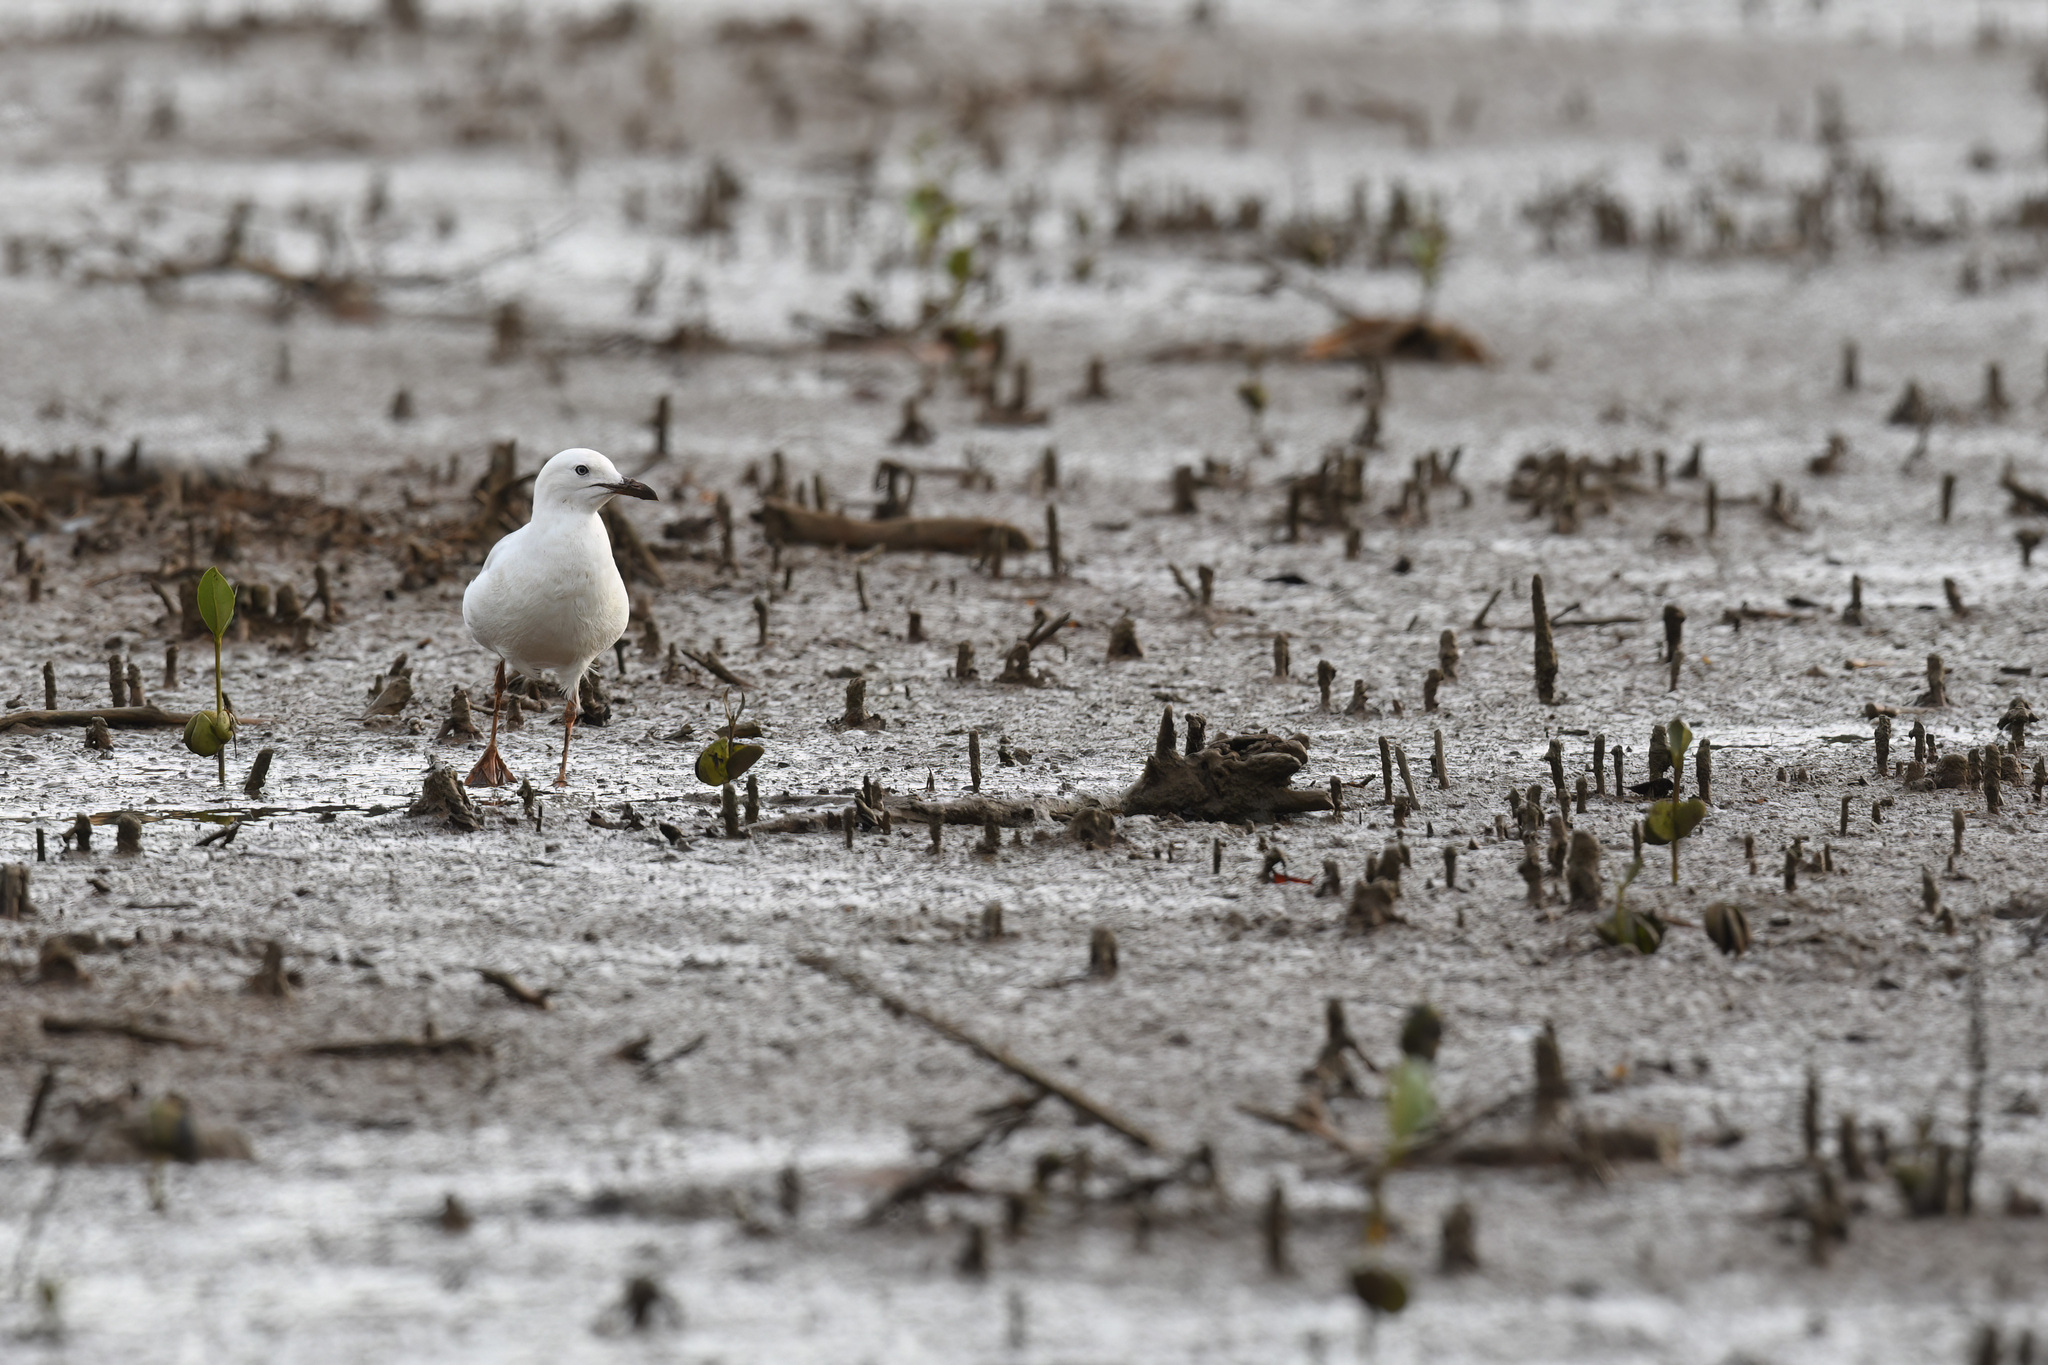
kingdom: Animalia
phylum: Chordata
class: Aves
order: Charadriiformes
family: Laridae
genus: Chroicocephalus
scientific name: Chroicocephalus novaehollandiae
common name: Silver gull
